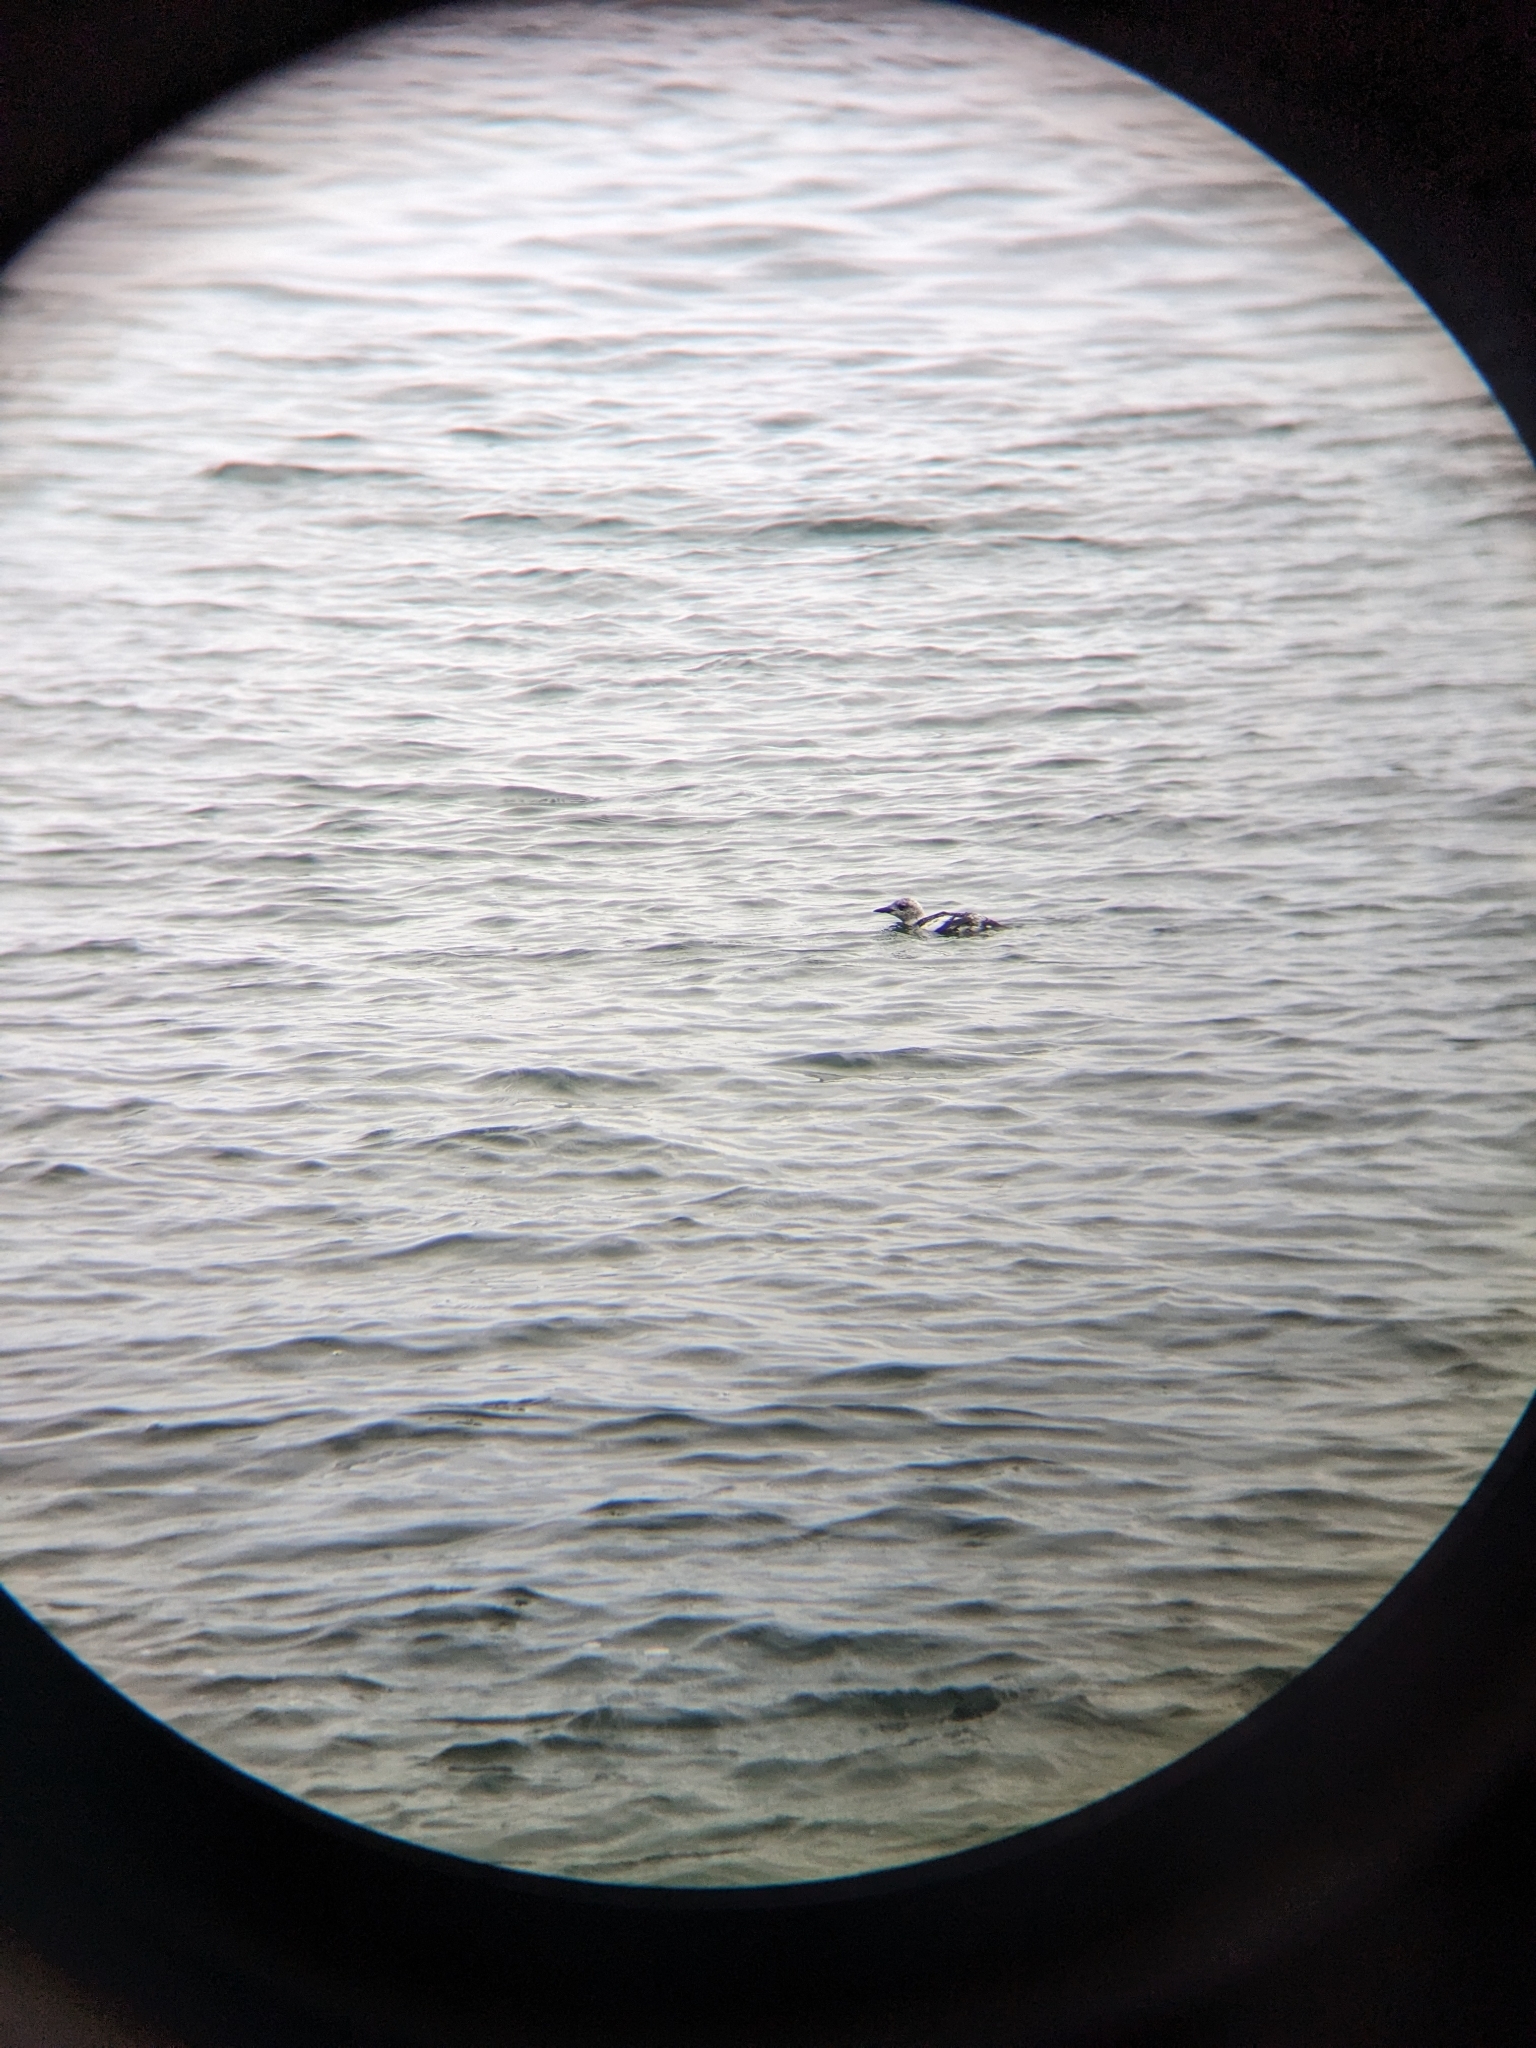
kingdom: Animalia
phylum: Chordata
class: Aves
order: Charadriiformes
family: Alcidae
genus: Cepphus
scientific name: Cepphus grylle
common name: Black guillemot
